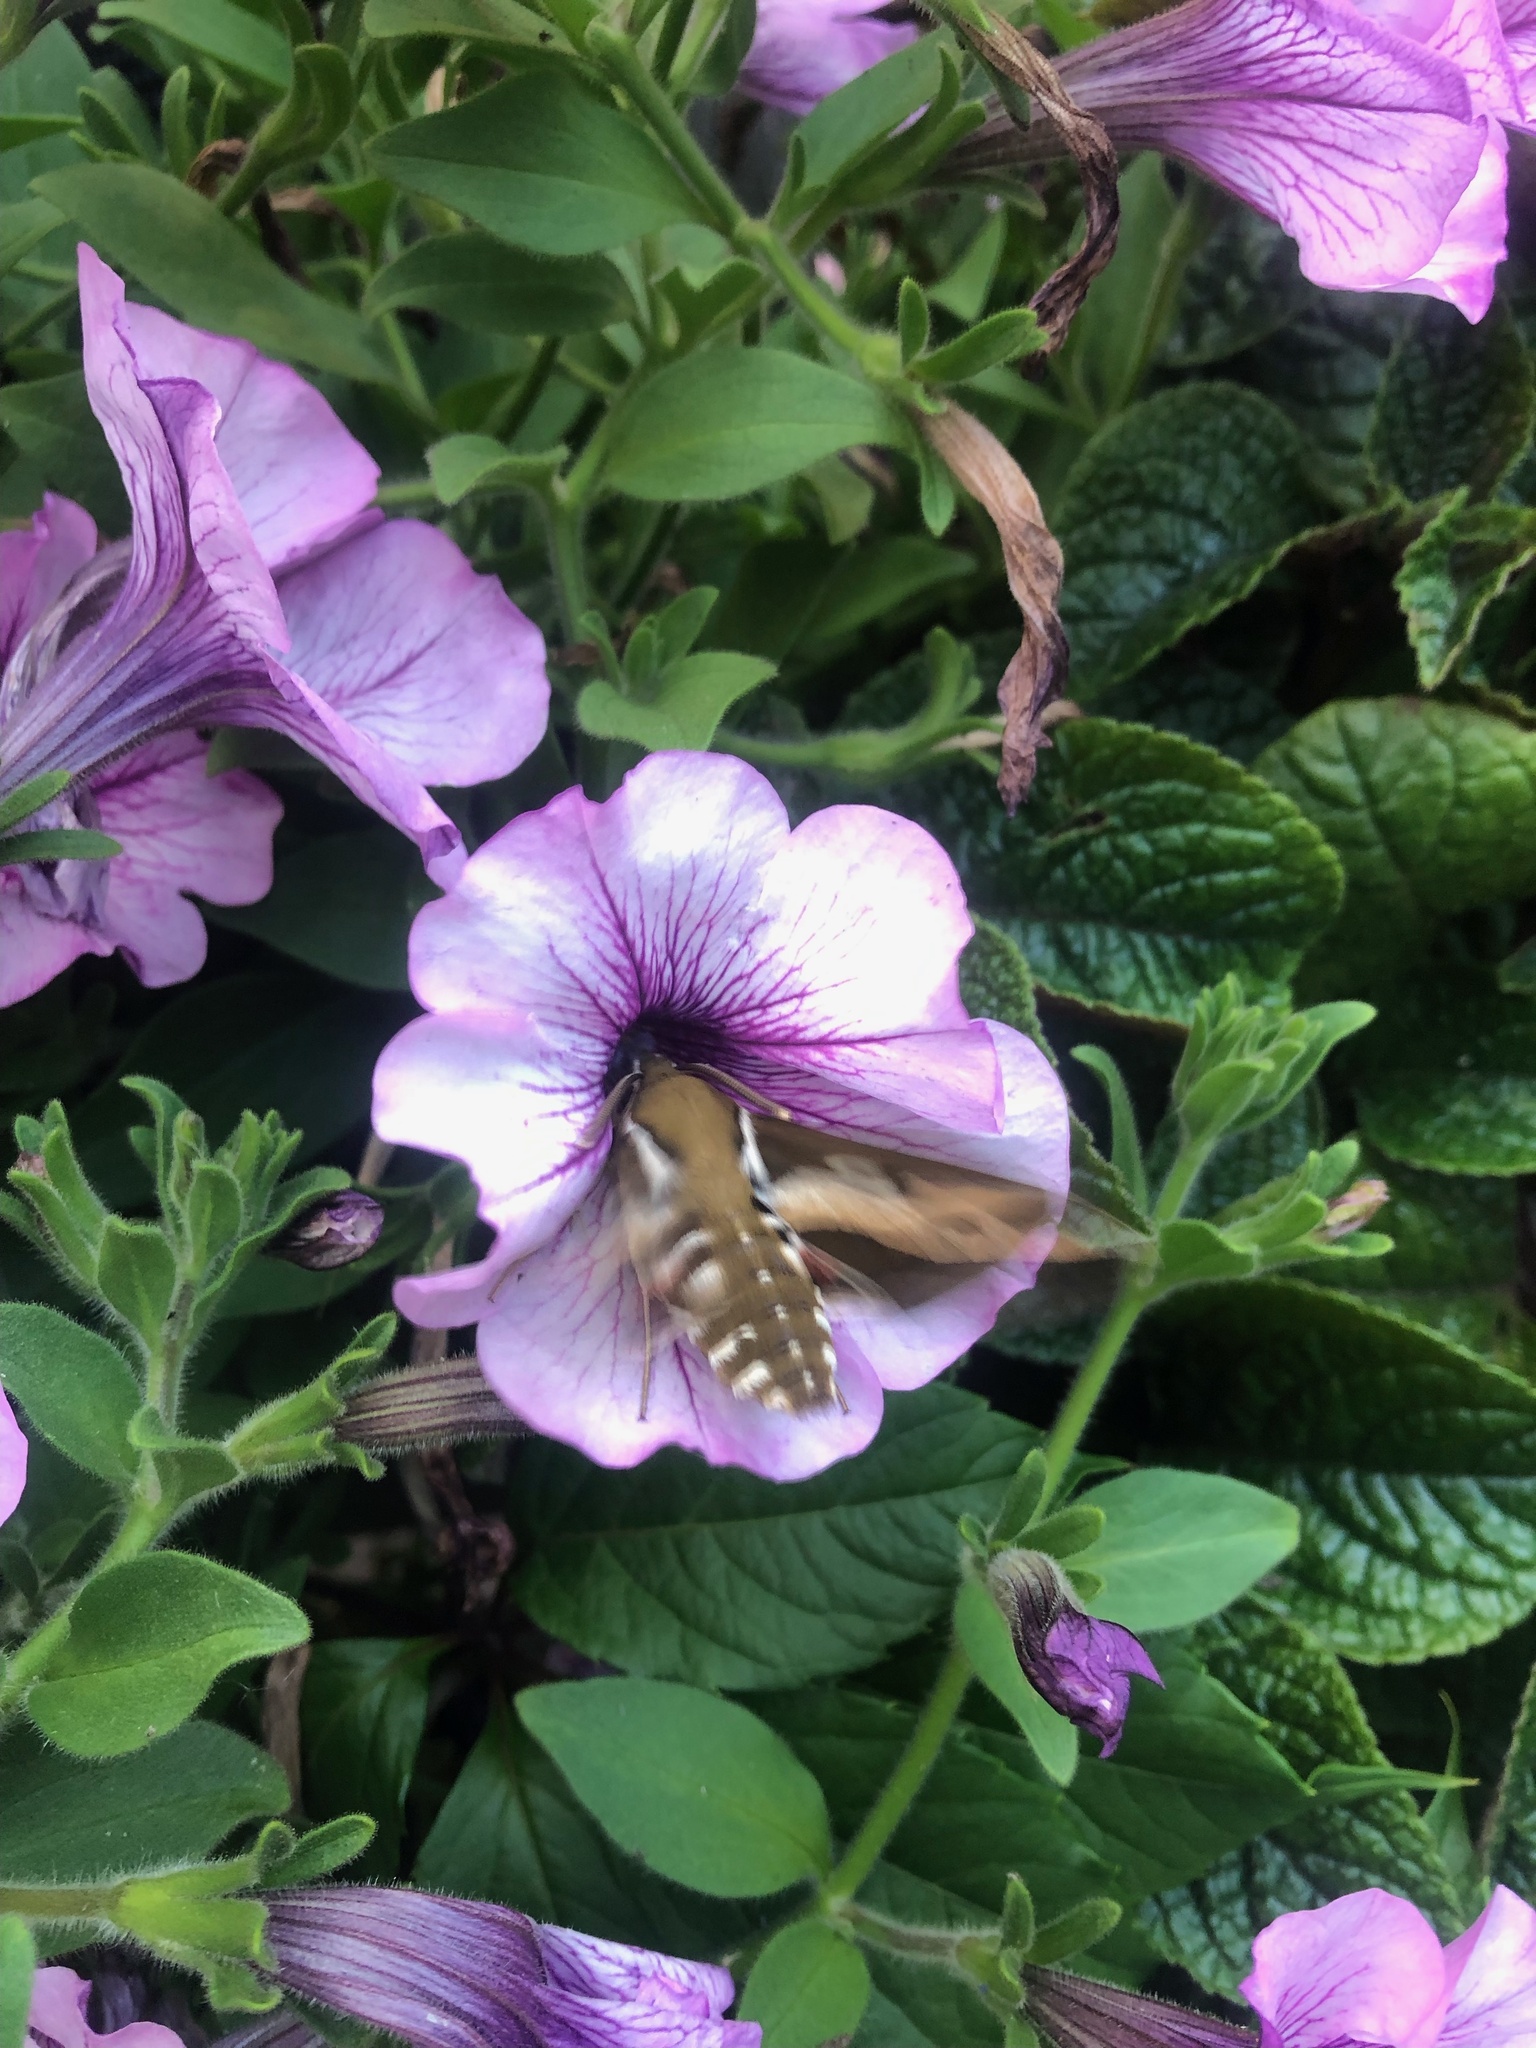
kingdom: Animalia
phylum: Arthropoda
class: Insecta
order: Lepidoptera
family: Sphingidae
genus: Hyles
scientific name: Hyles gallii
